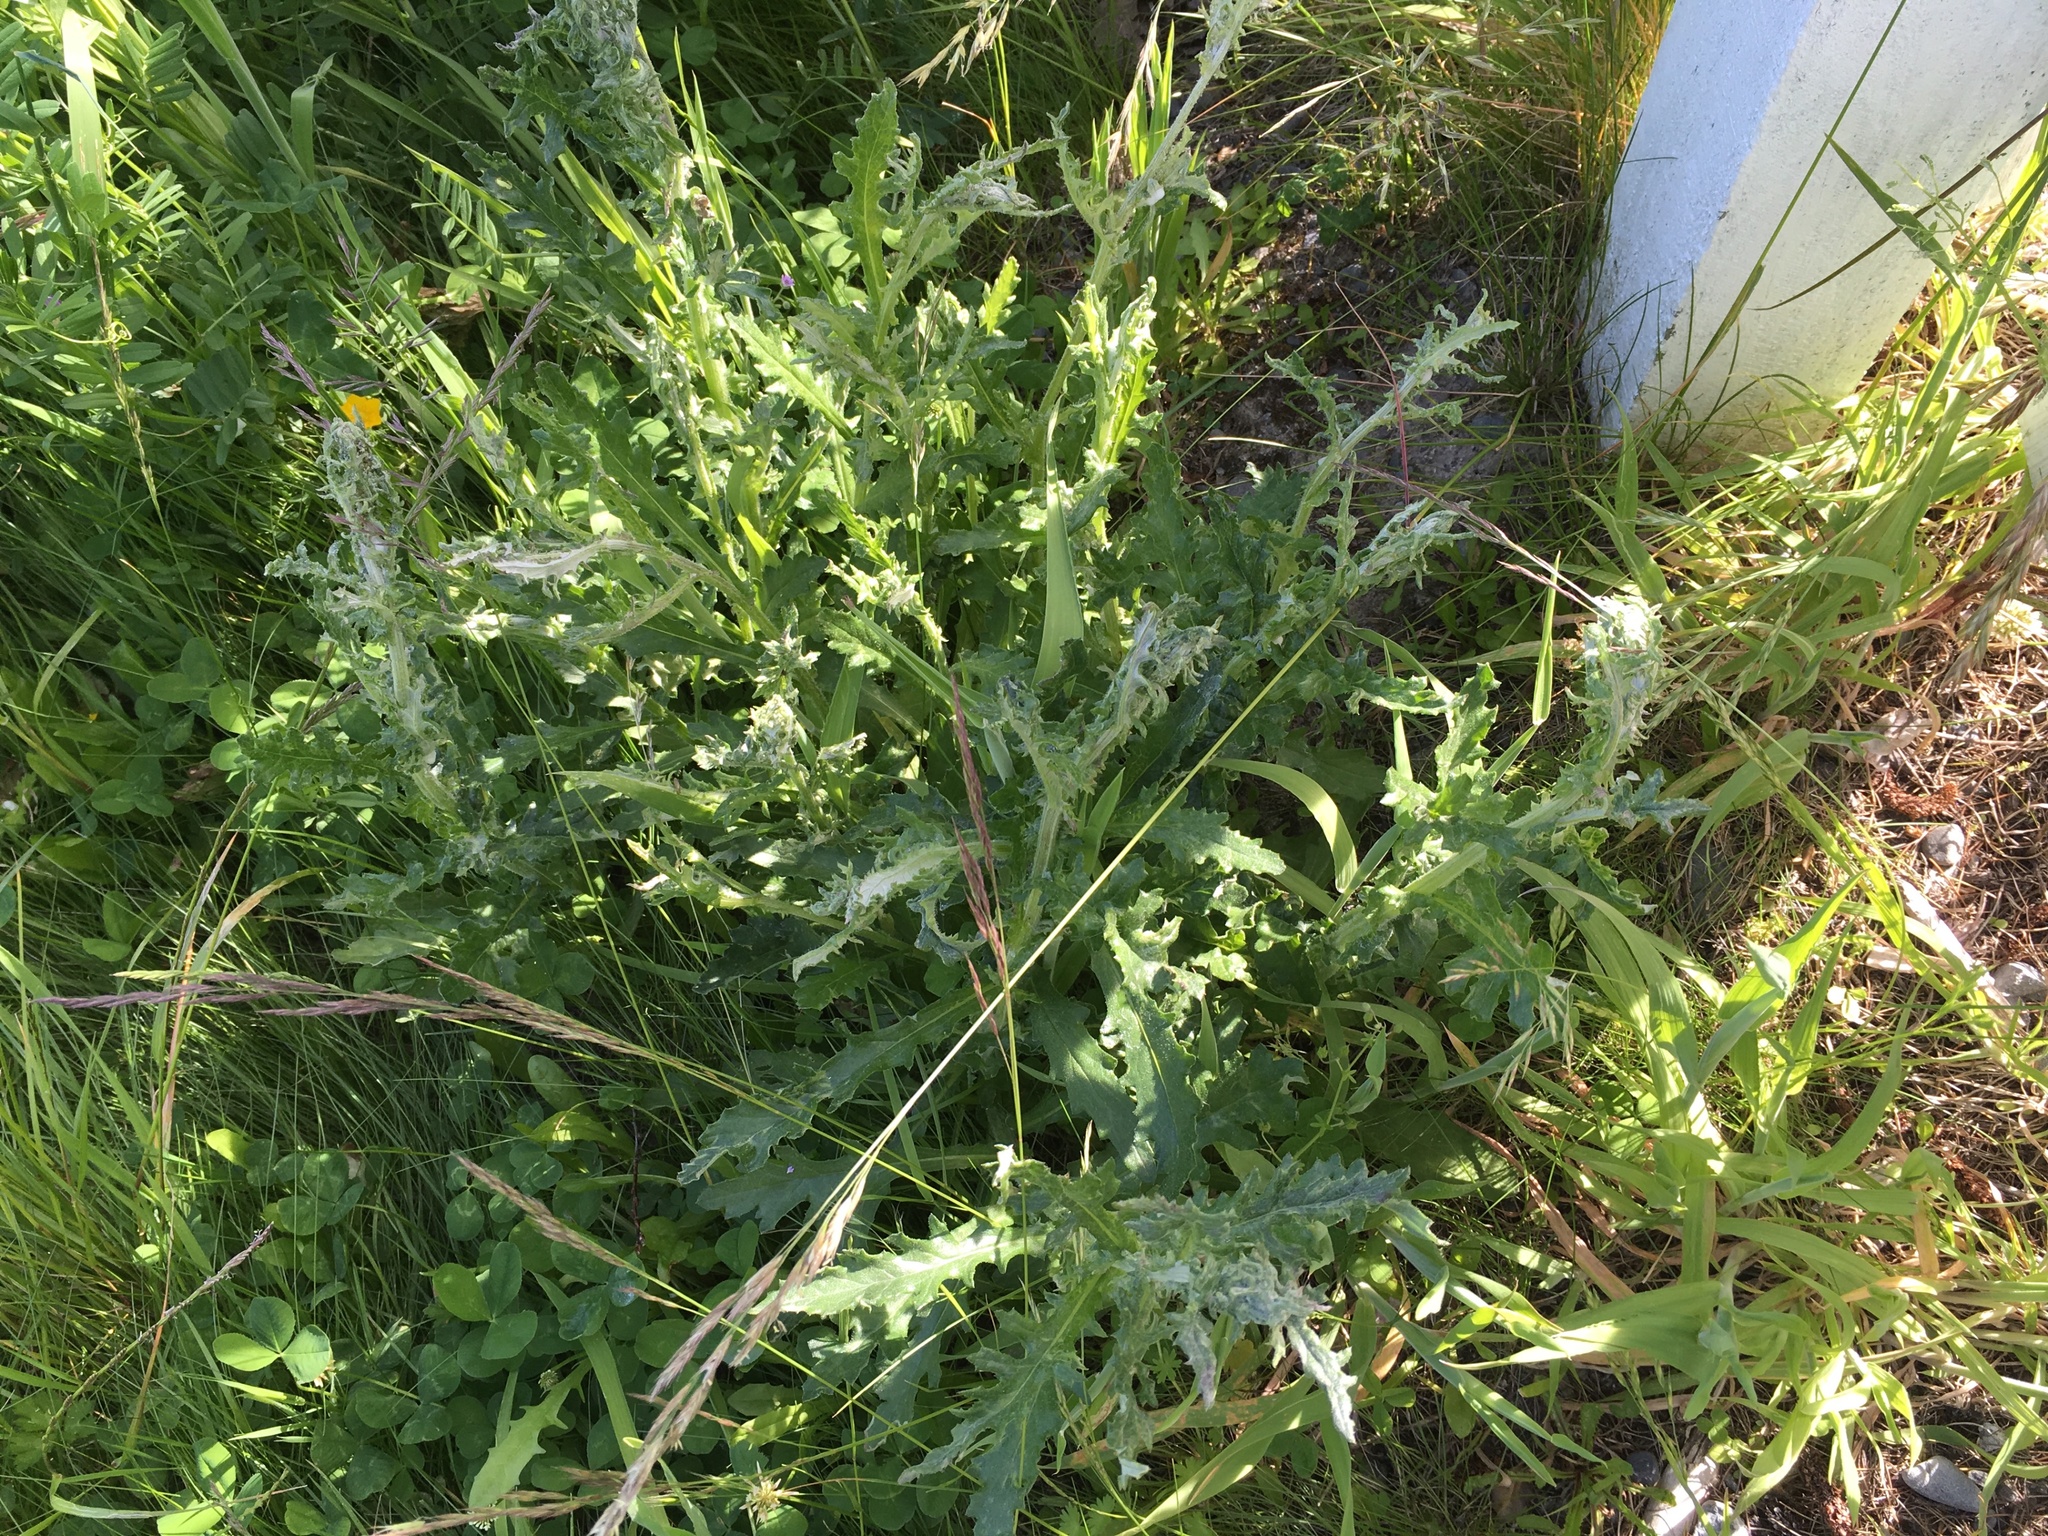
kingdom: Plantae
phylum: Tracheophyta
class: Magnoliopsida
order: Asterales
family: Asteraceae
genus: Senecio
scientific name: Senecio glomeratus
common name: Cutleaf burnweed
